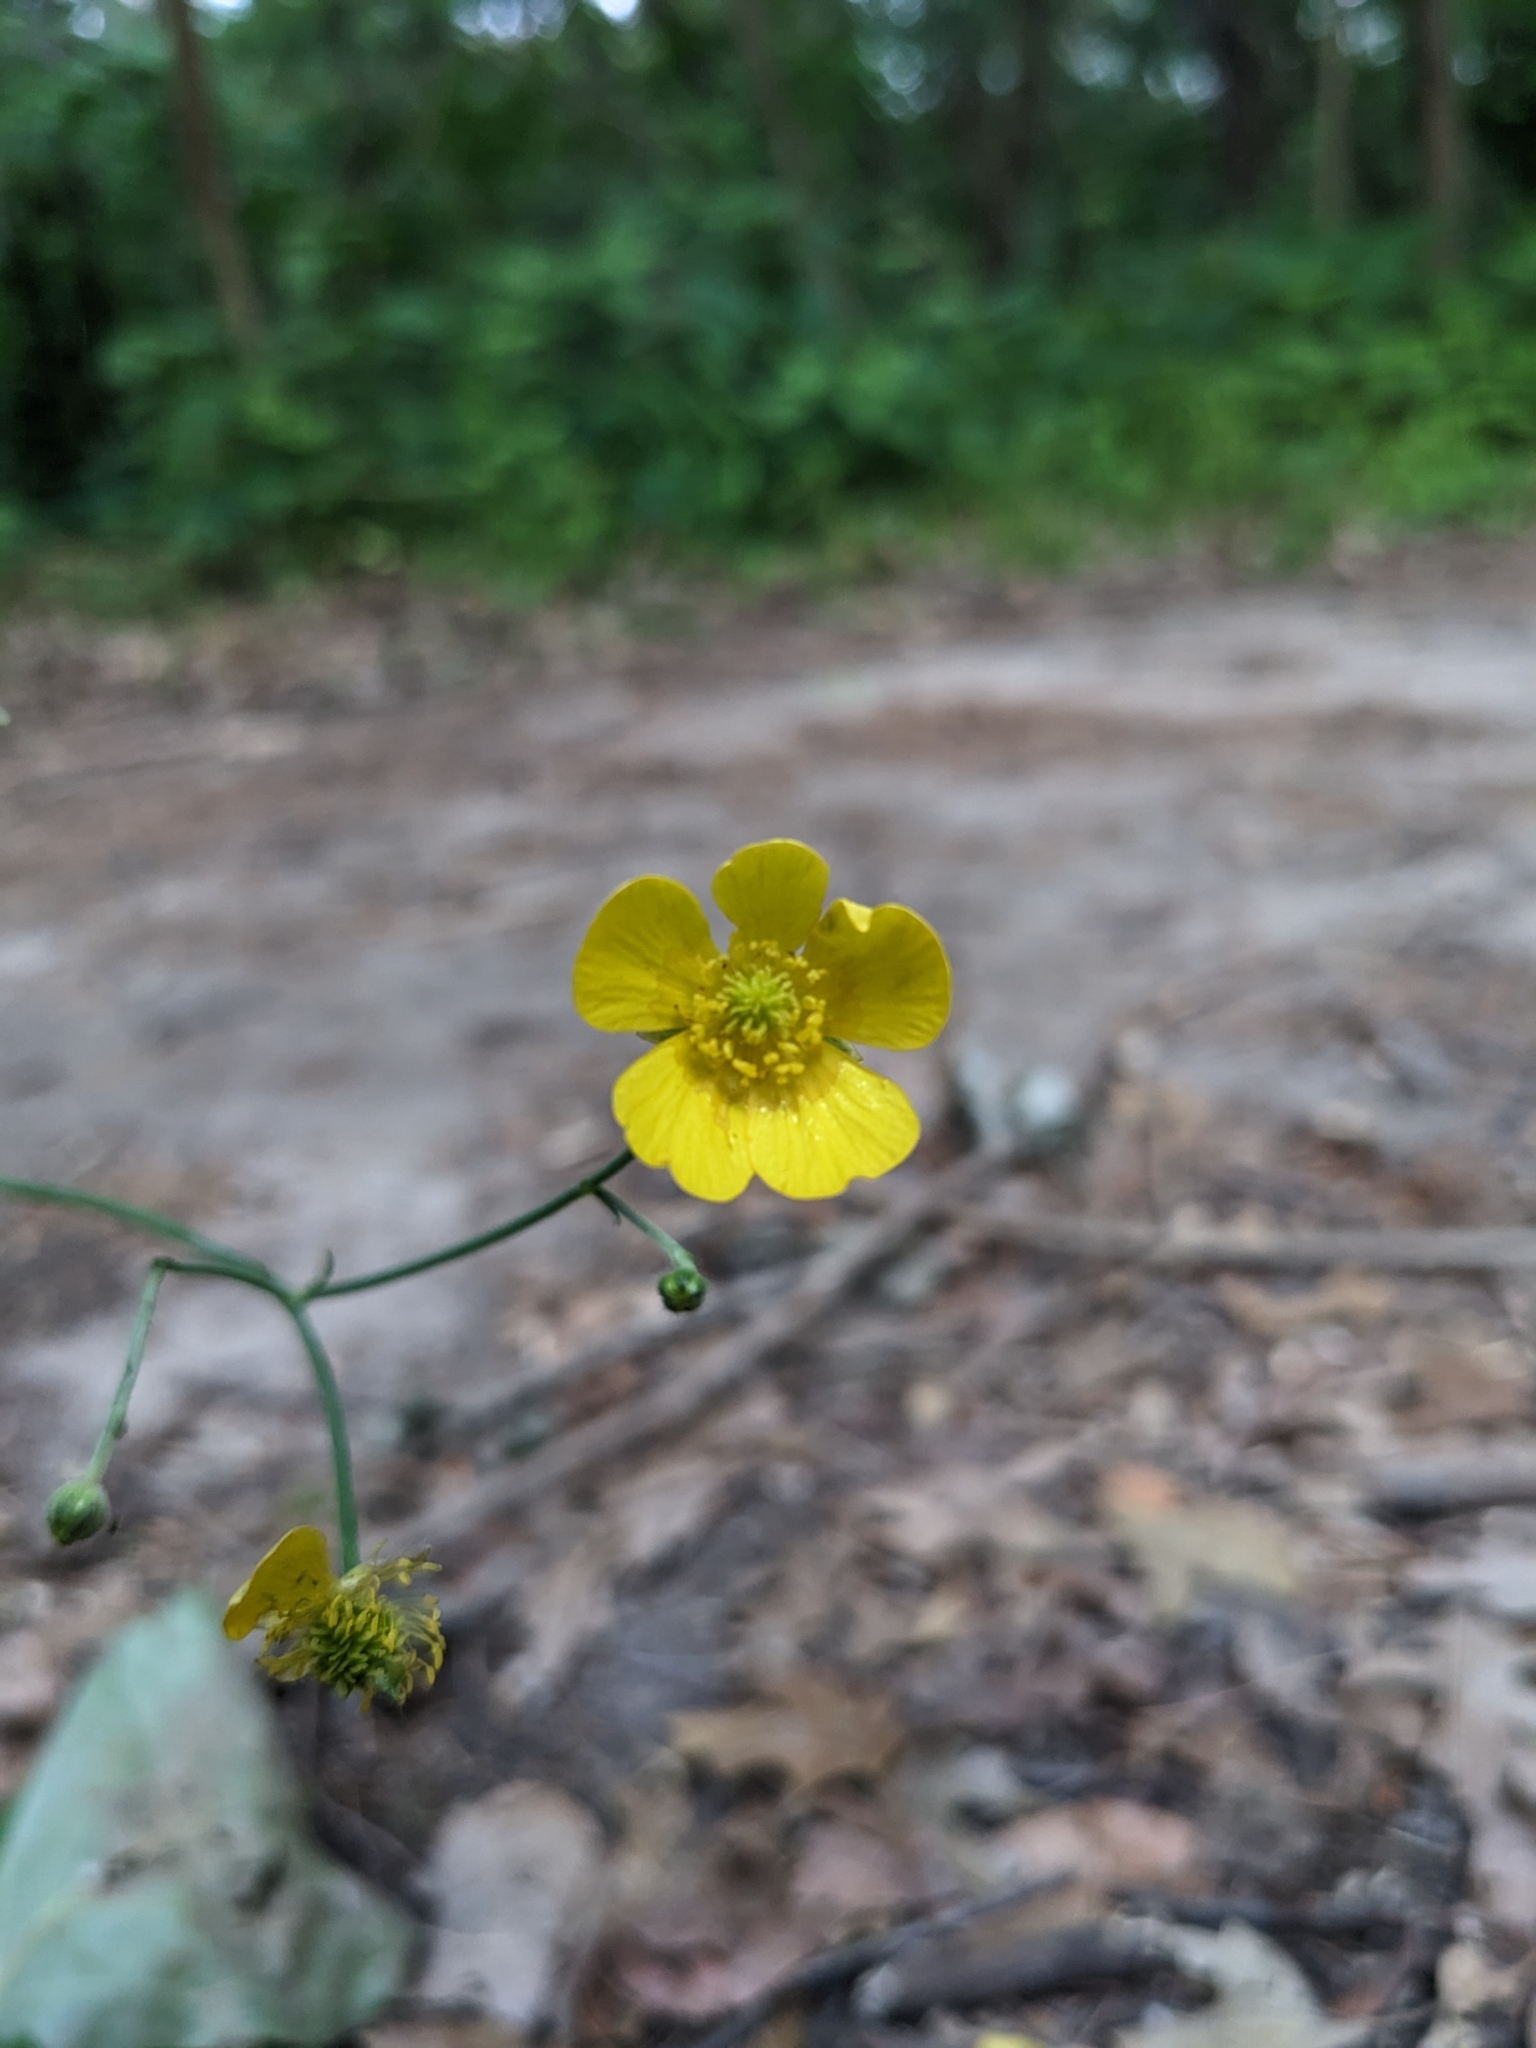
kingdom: Plantae
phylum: Tracheophyta
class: Magnoliopsida
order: Ranunculales
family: Ranunculaceae
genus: Ranunculus
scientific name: Ranunculus acris
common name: Meadow buttercup
